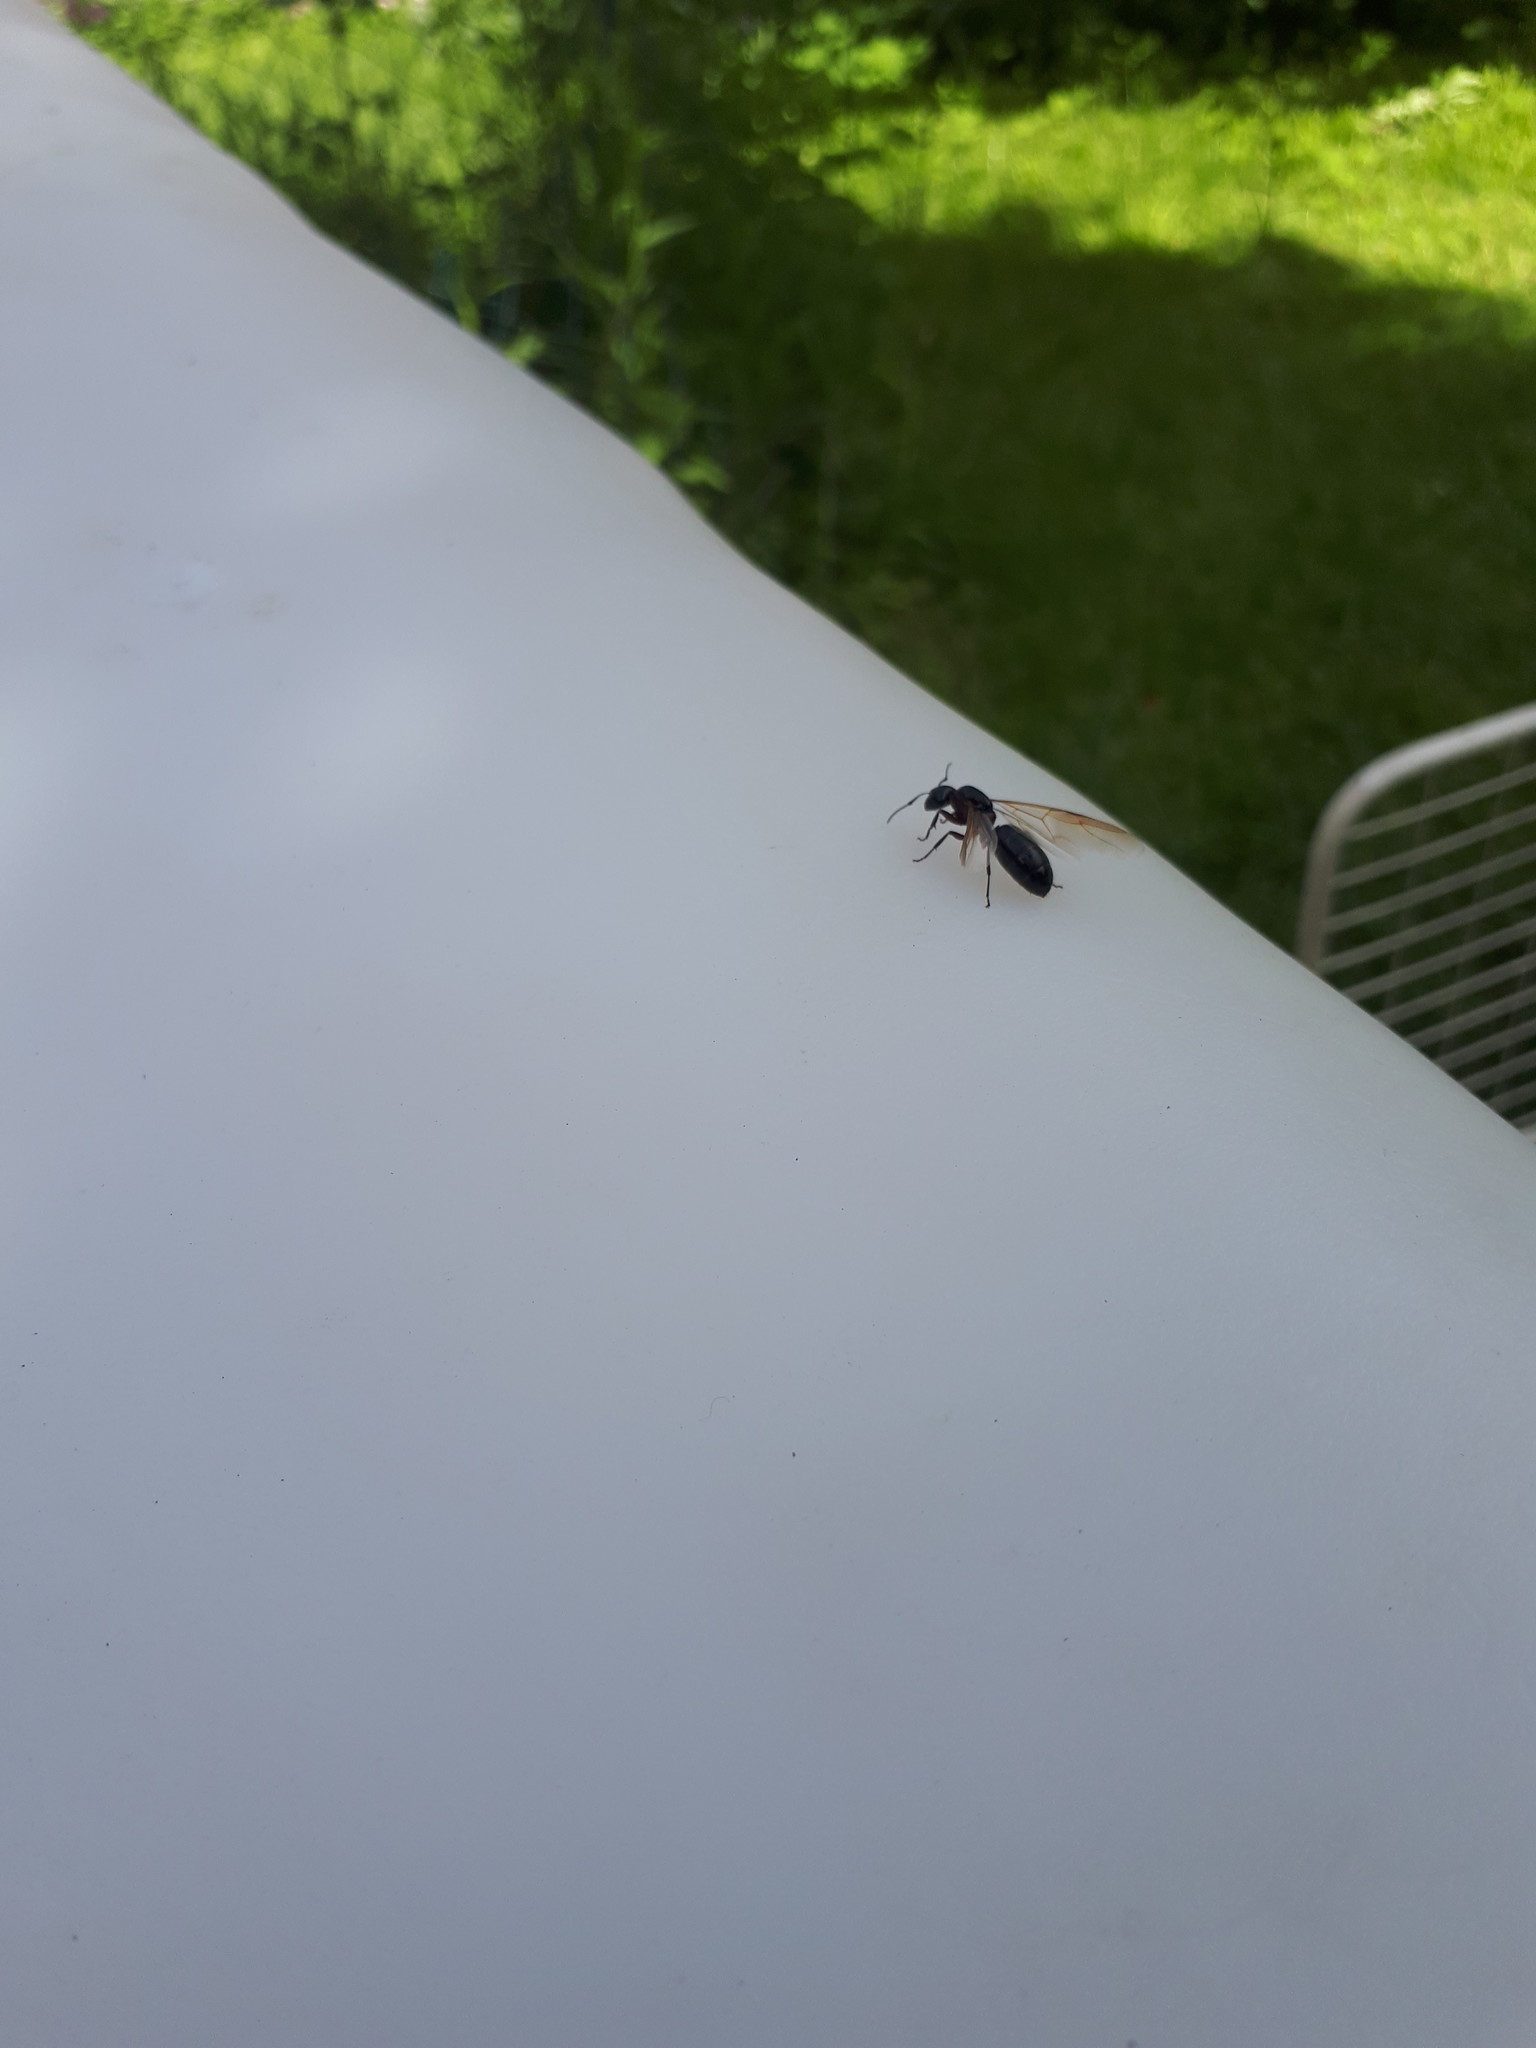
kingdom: Animalia
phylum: Arthropoda
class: Insecta
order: Hymenoptera
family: Formicidae
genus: Camponotus
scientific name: Camponotus herculeanus
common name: Hercules ant
